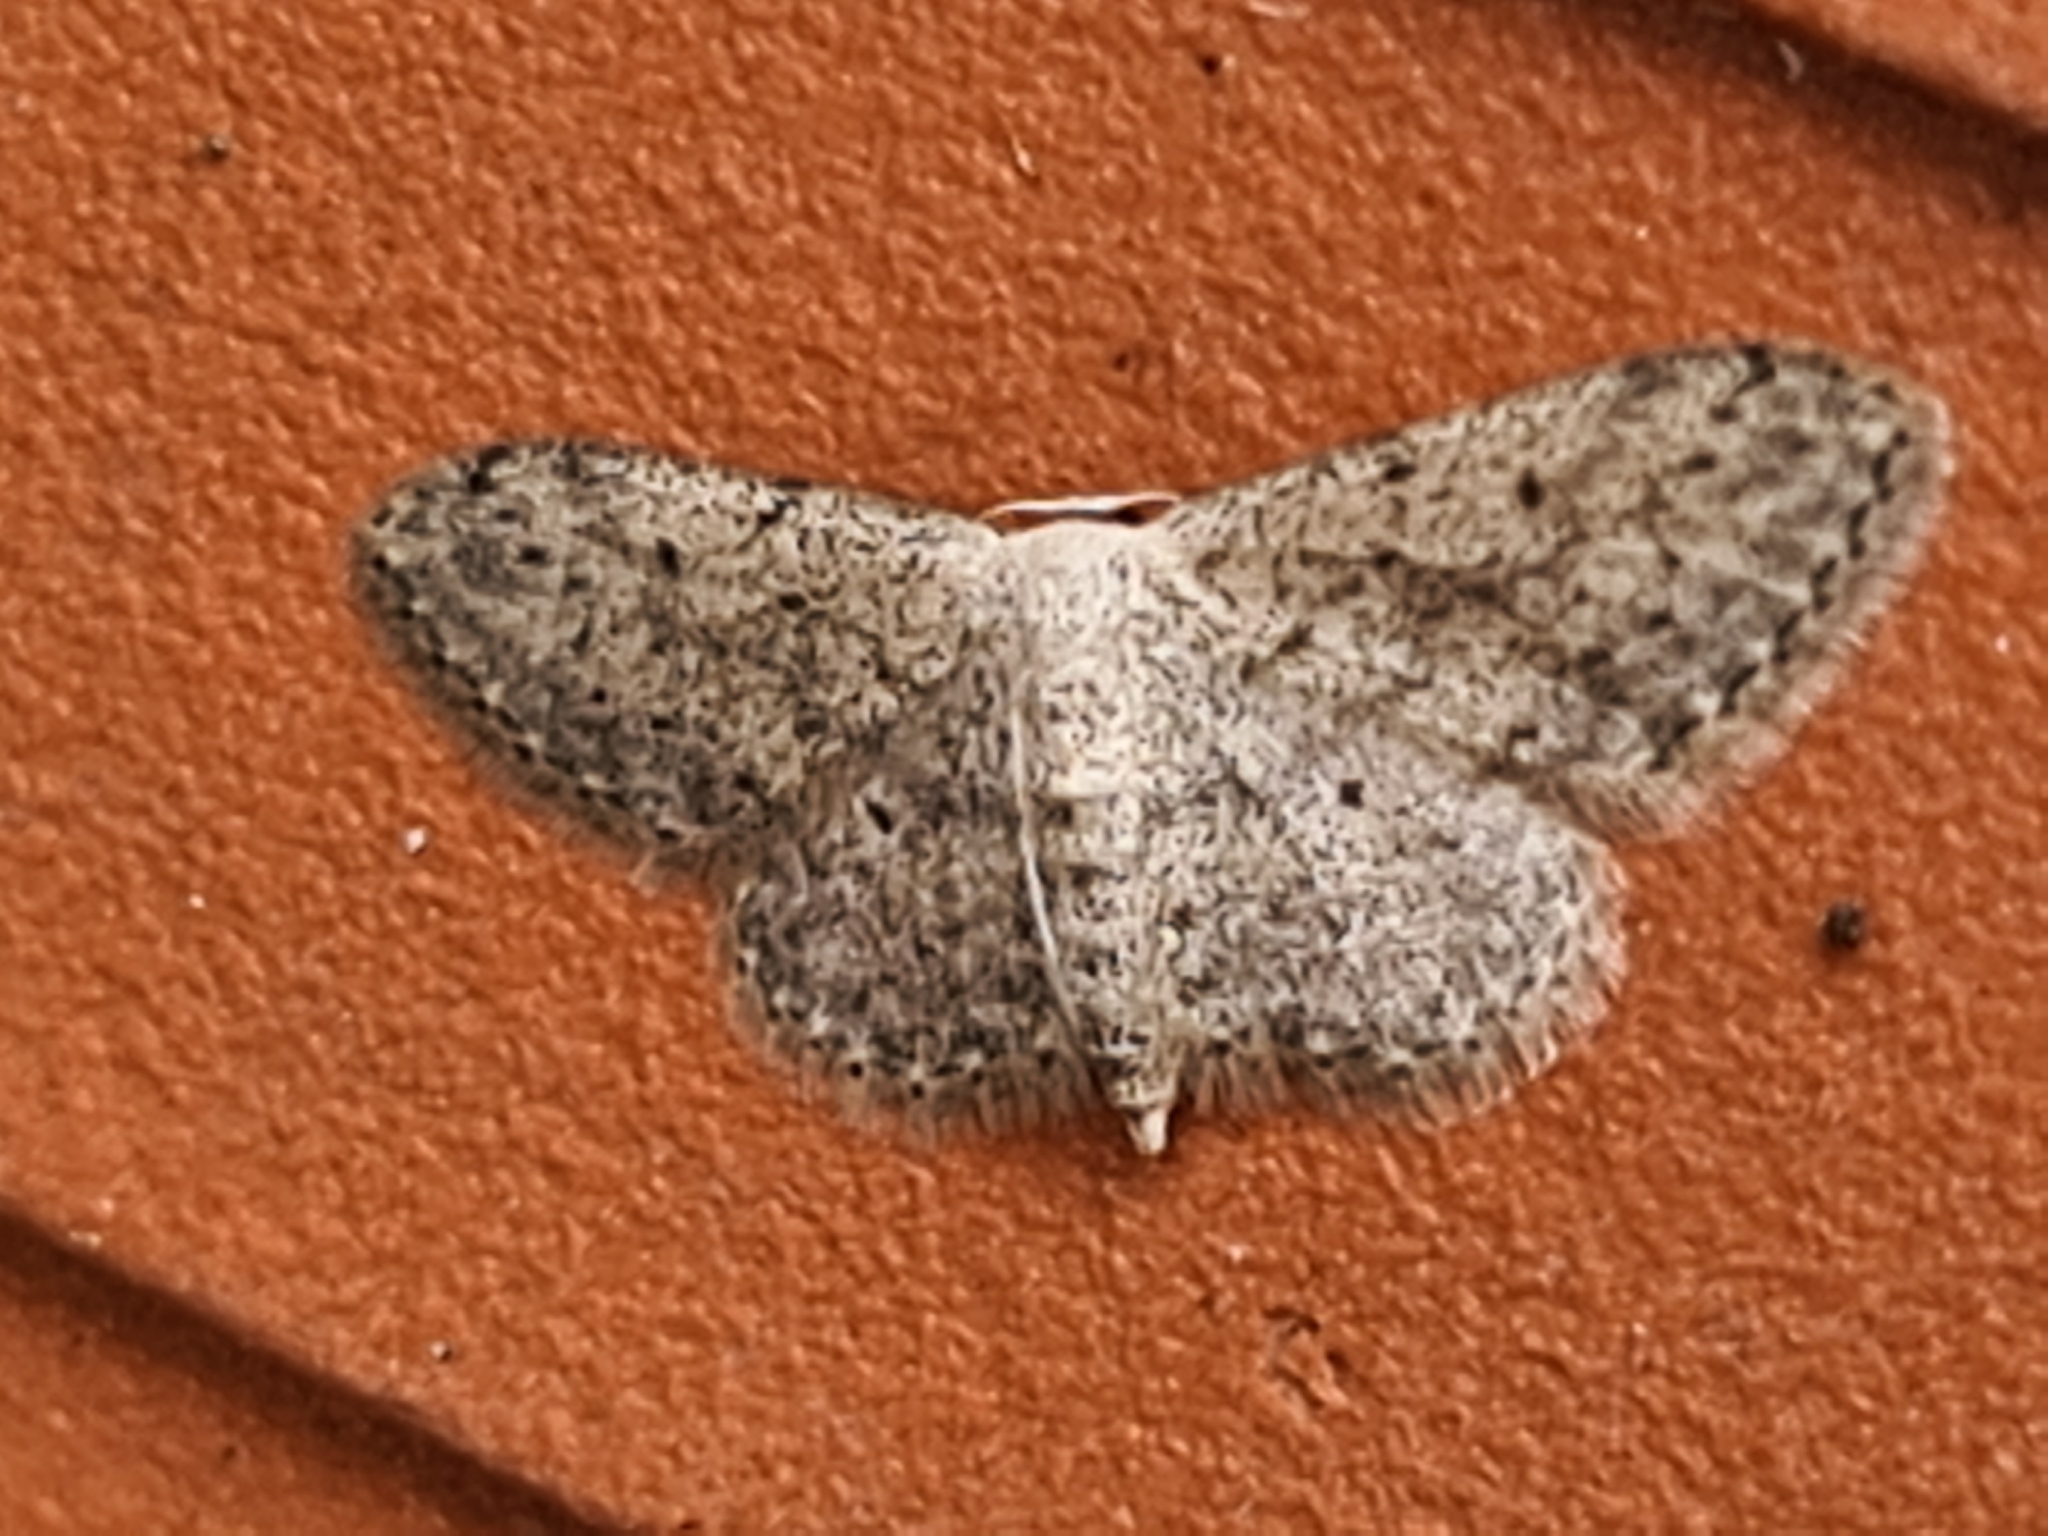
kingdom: Animalia
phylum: Arthropoda
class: Insecta
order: Lepidoptera
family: Geometridae
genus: Idaea
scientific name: Idaea seriata
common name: Small dusty wave
